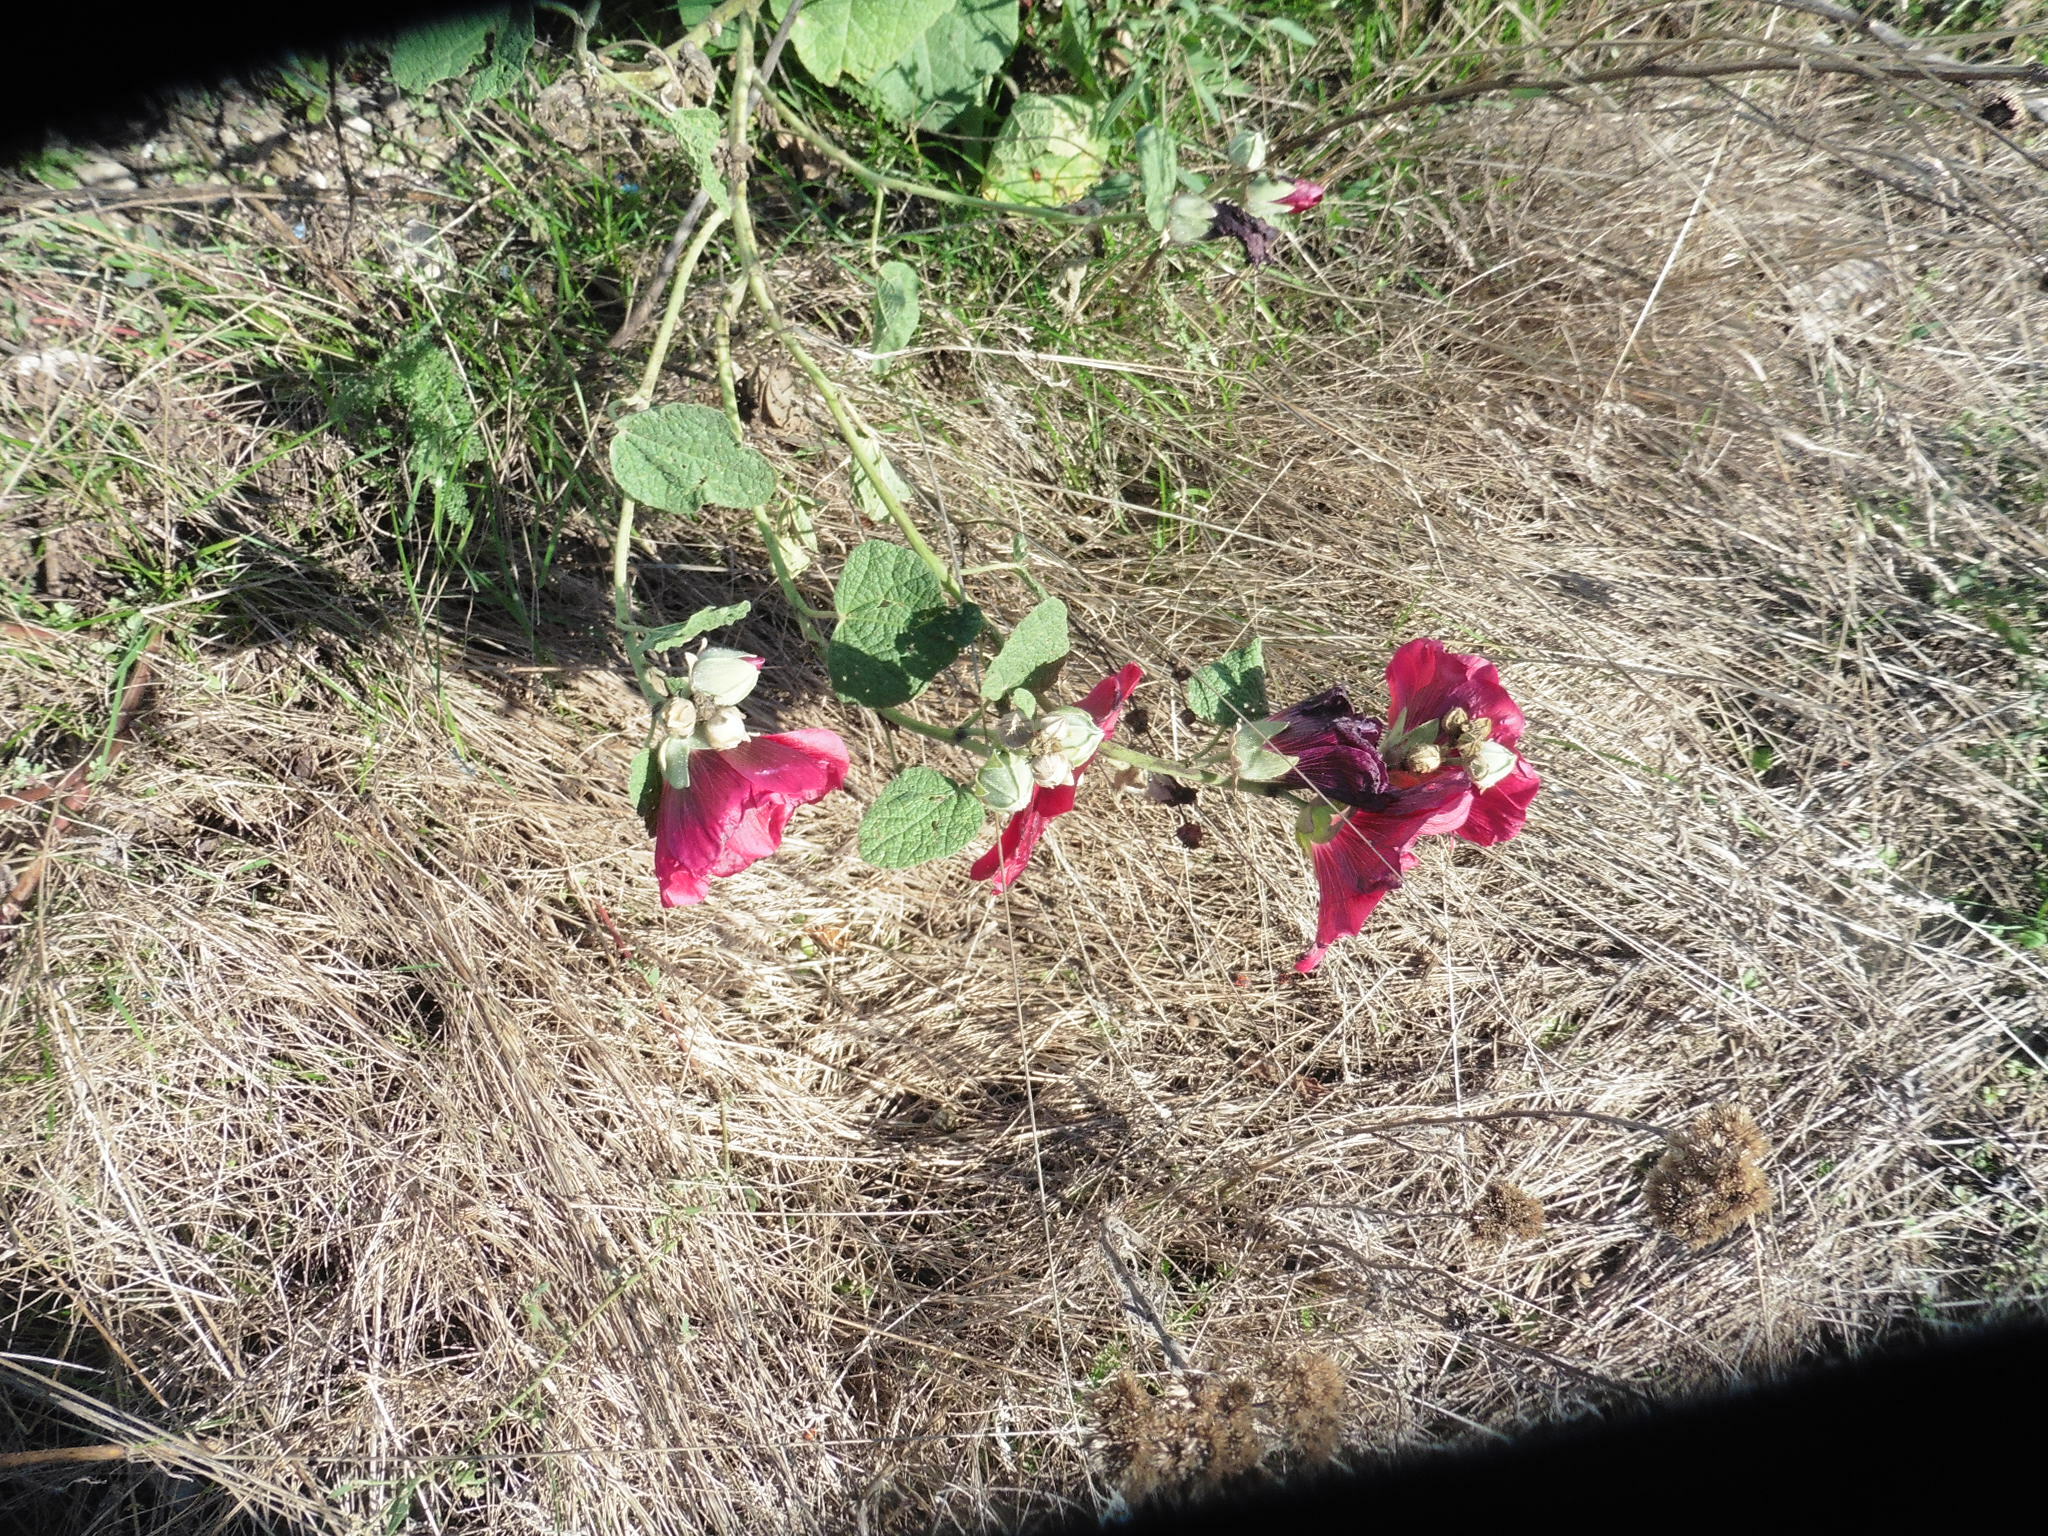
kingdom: Plantae
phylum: Tracheophyta
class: Magnoliopsida
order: Malvales
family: Malvaceae
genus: Alcea
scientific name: Alcea rosea
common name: Hollyhock
